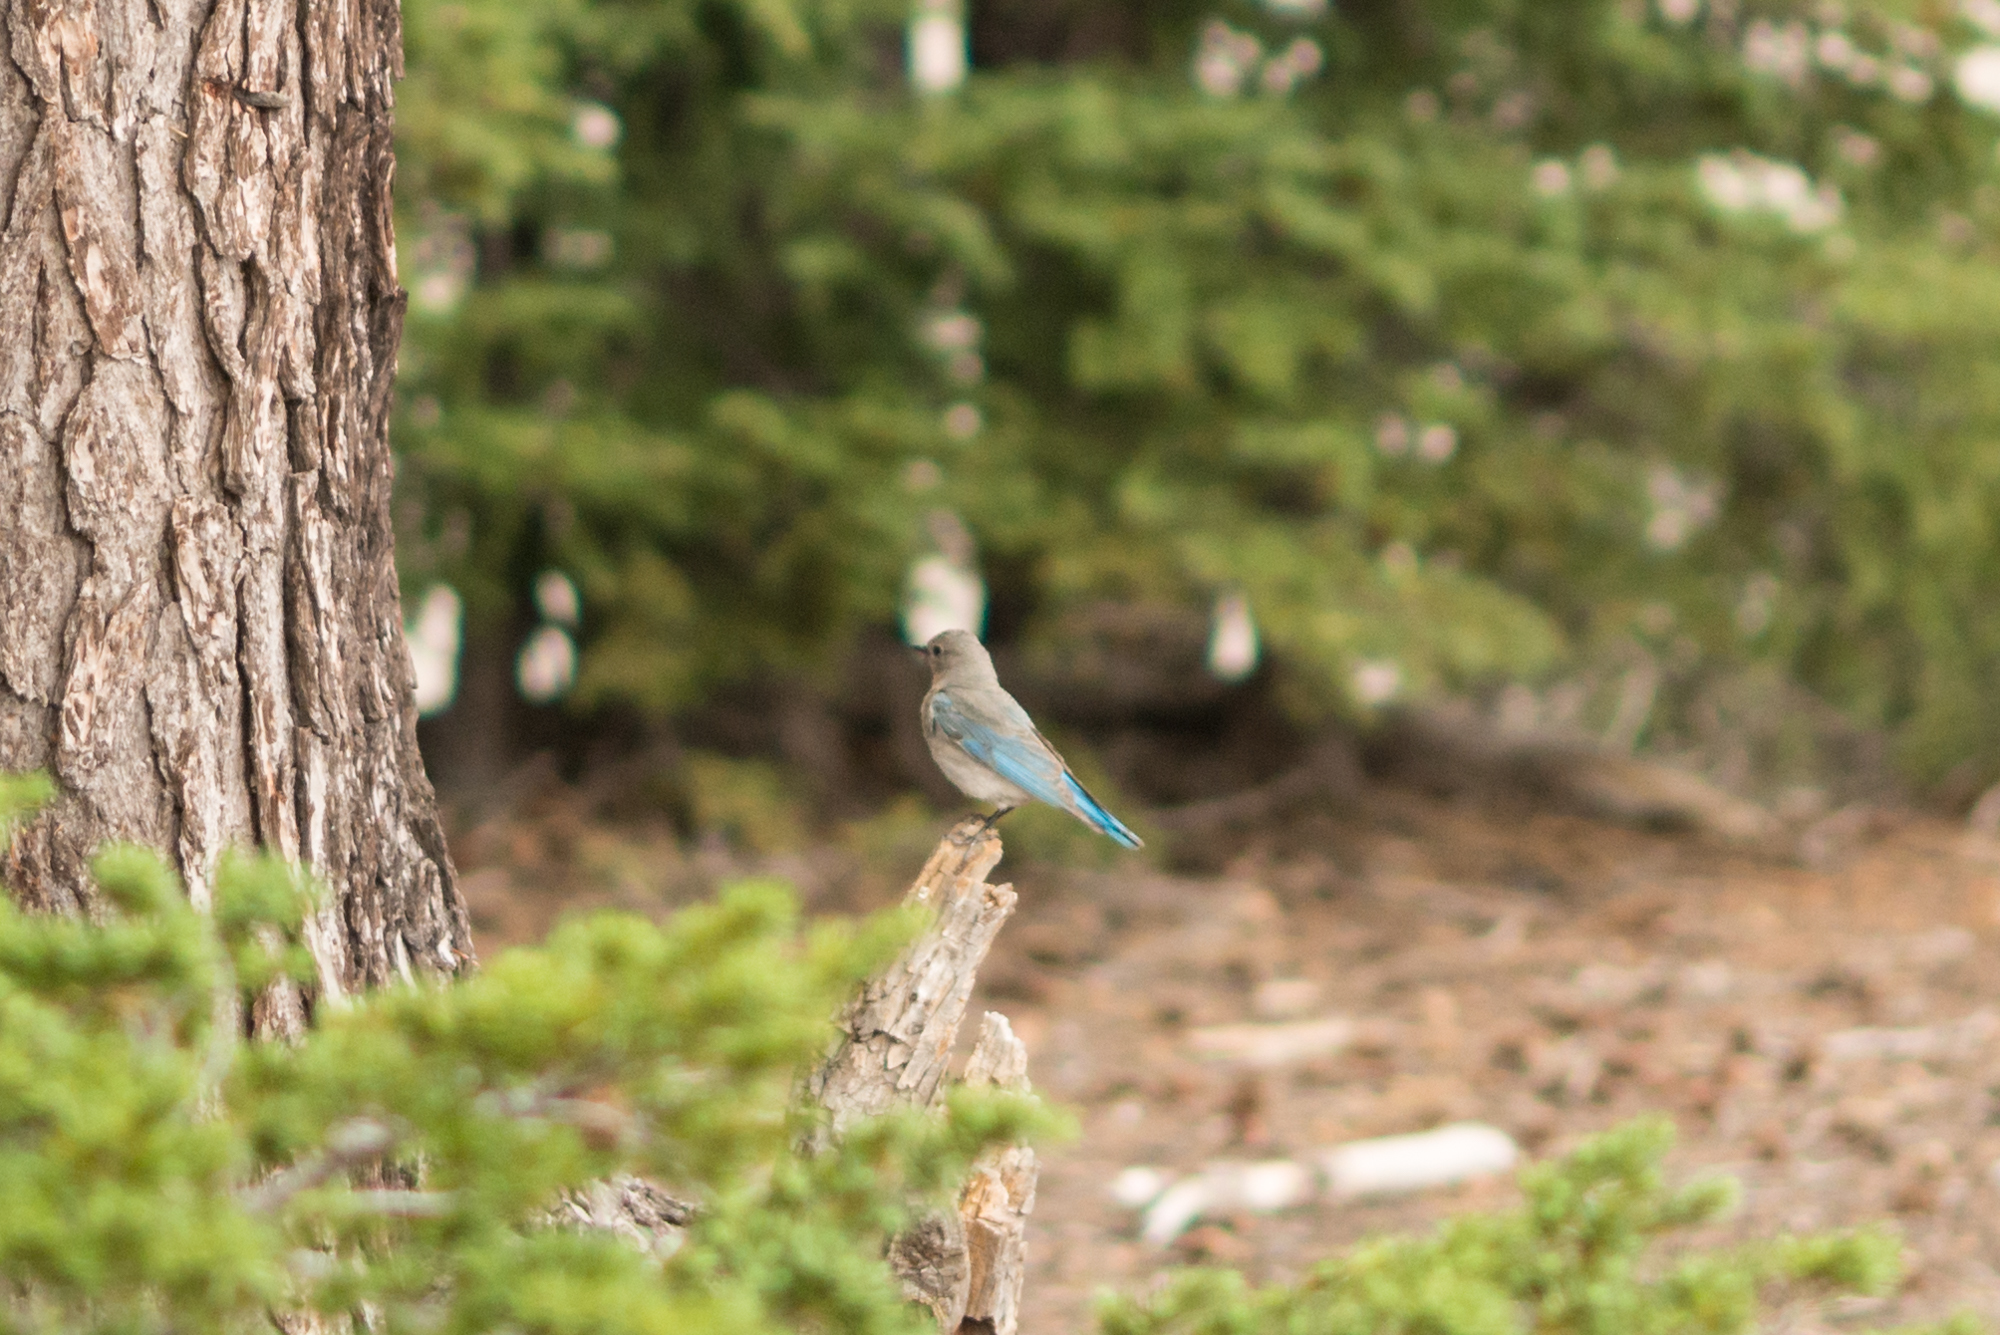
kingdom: Animalia
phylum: Chordata
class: Aves
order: Passeriformes
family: Turdidae
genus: Sialia
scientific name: Sialia currucoides
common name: Mountain bluebird
